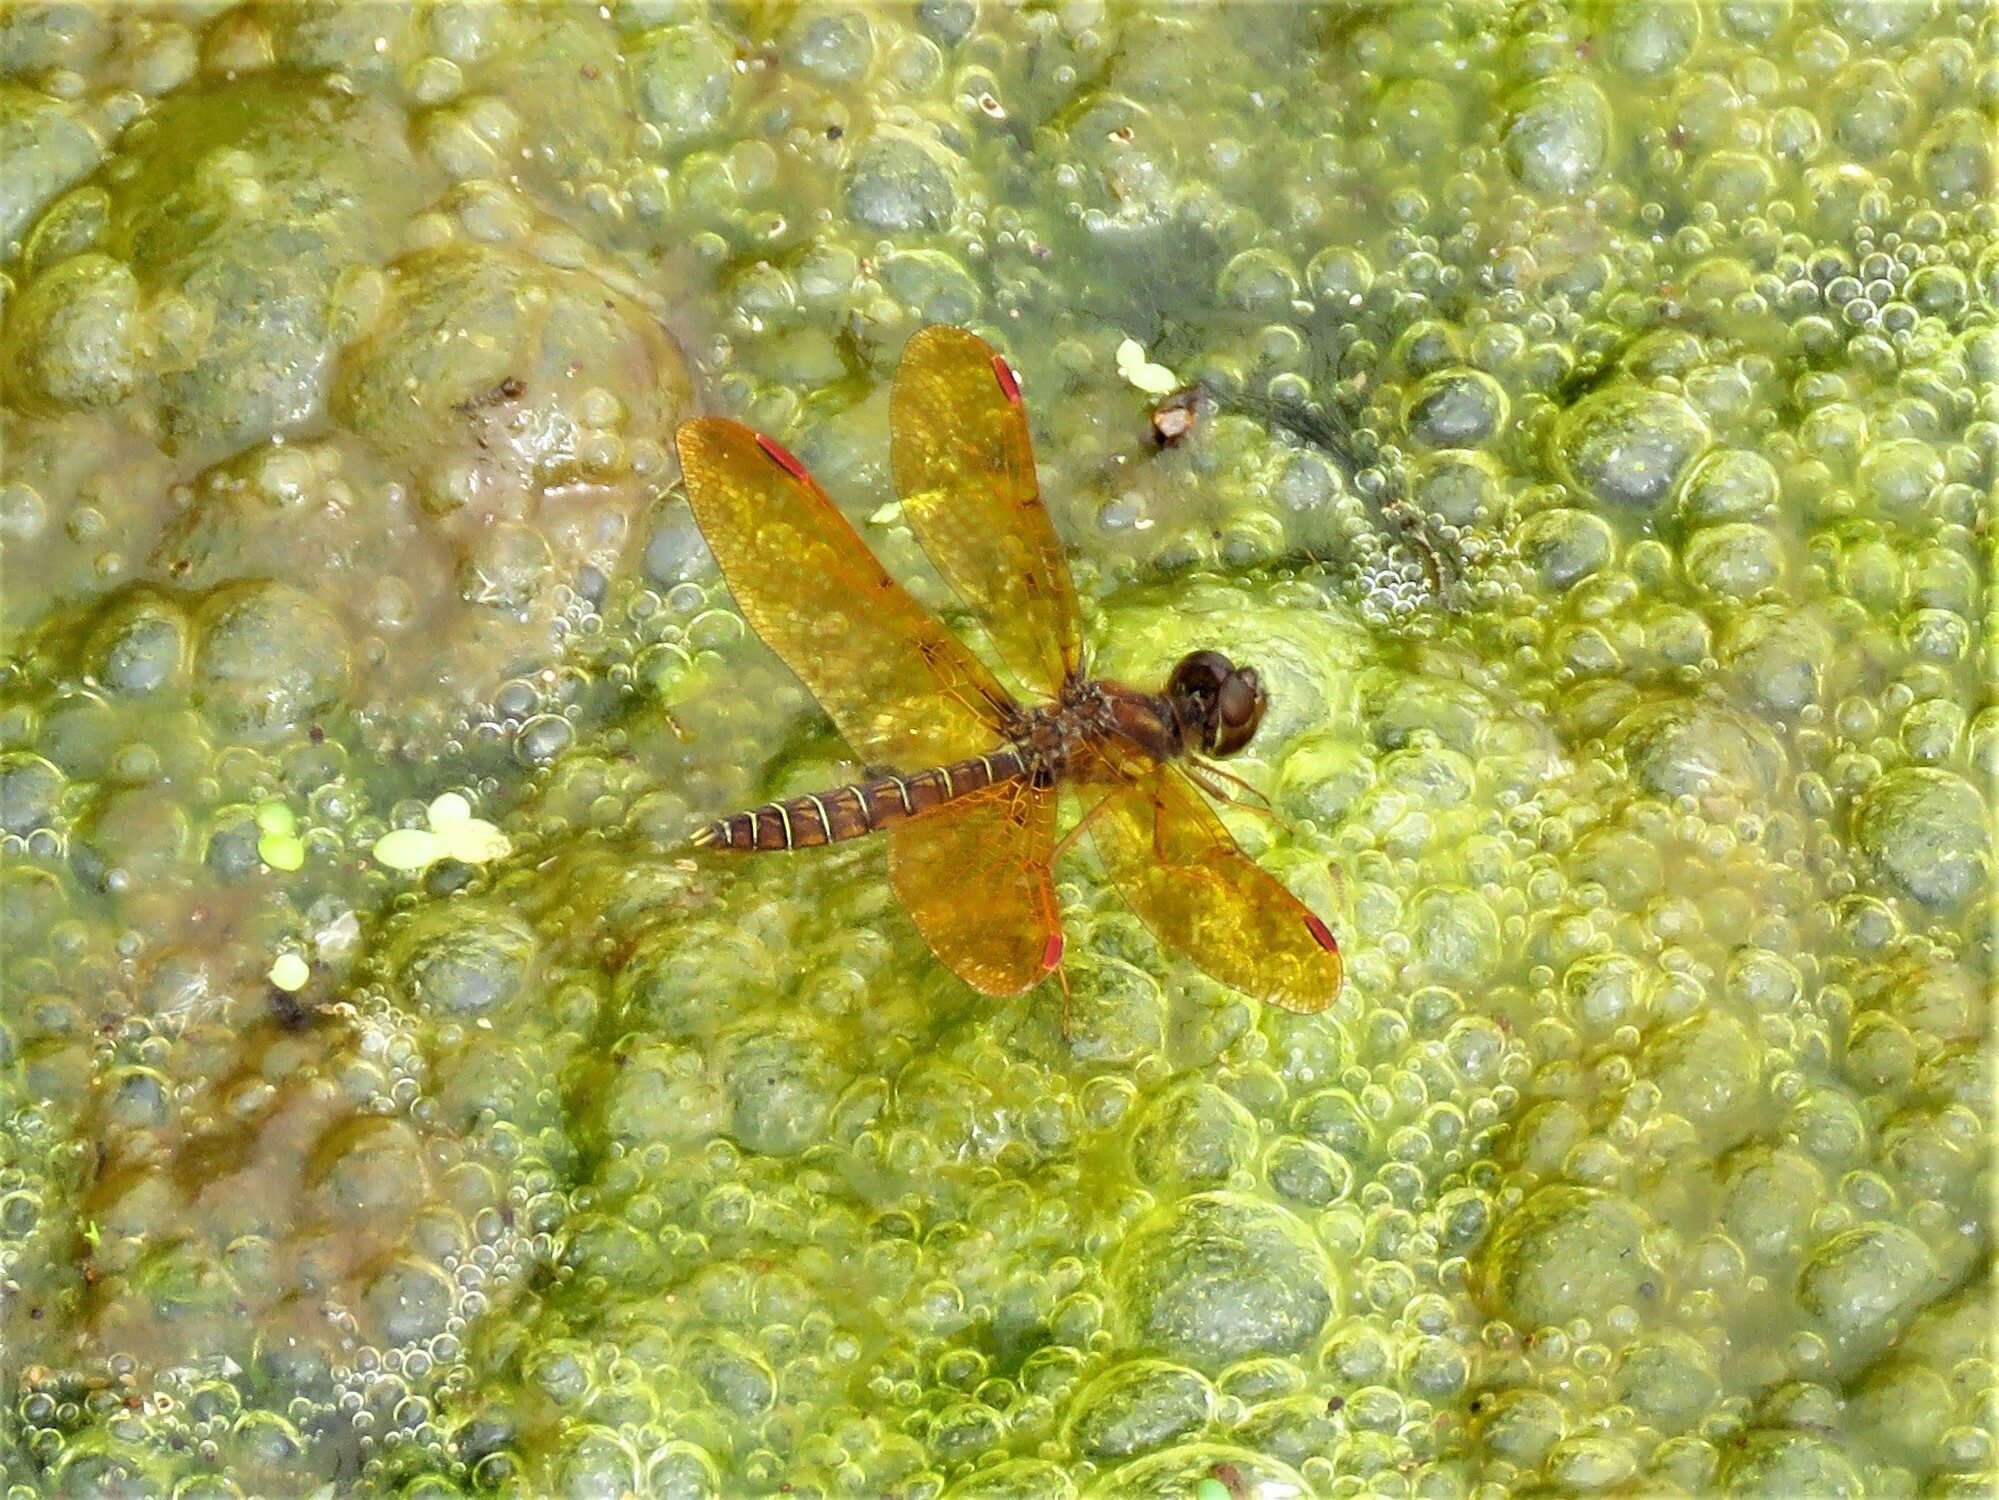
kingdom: Animalia
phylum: Arthropoda
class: Insecta
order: Odonata
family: Libellulidae
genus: Perithemis
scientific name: Perithemis tenera
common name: Eastern amberwing
